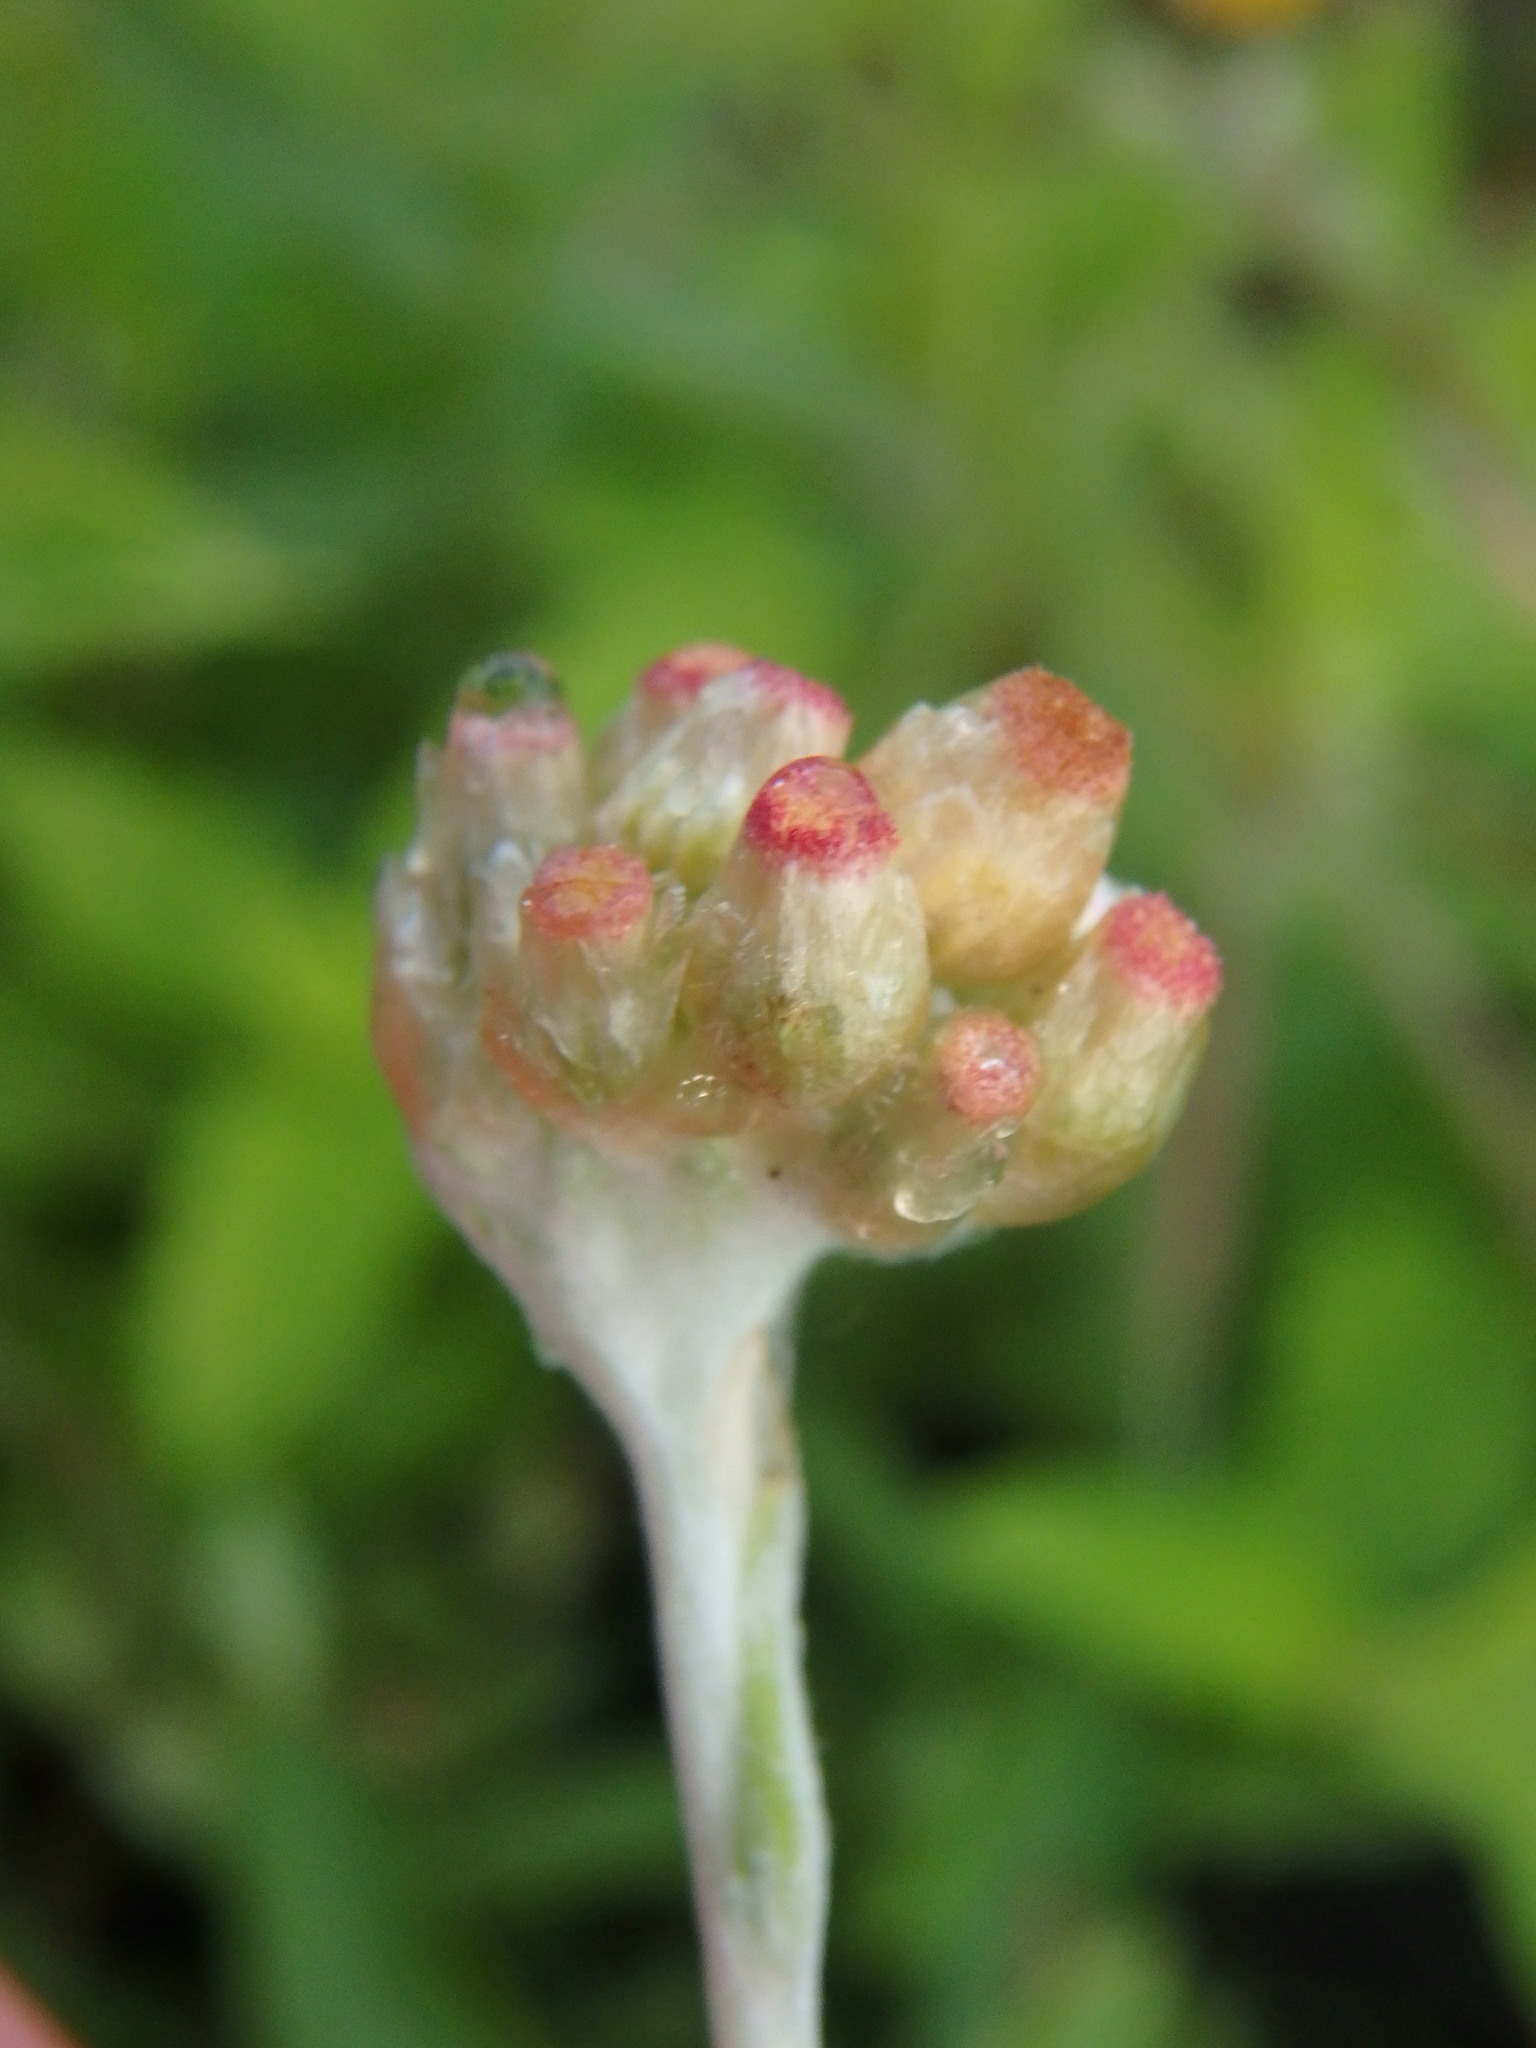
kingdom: Plantae
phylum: Tracheophyta
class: Magnoliopsida
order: Asterales
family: Asteraceae
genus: Helichrysum
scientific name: Helichrysum luteoalbum
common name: Daisy
